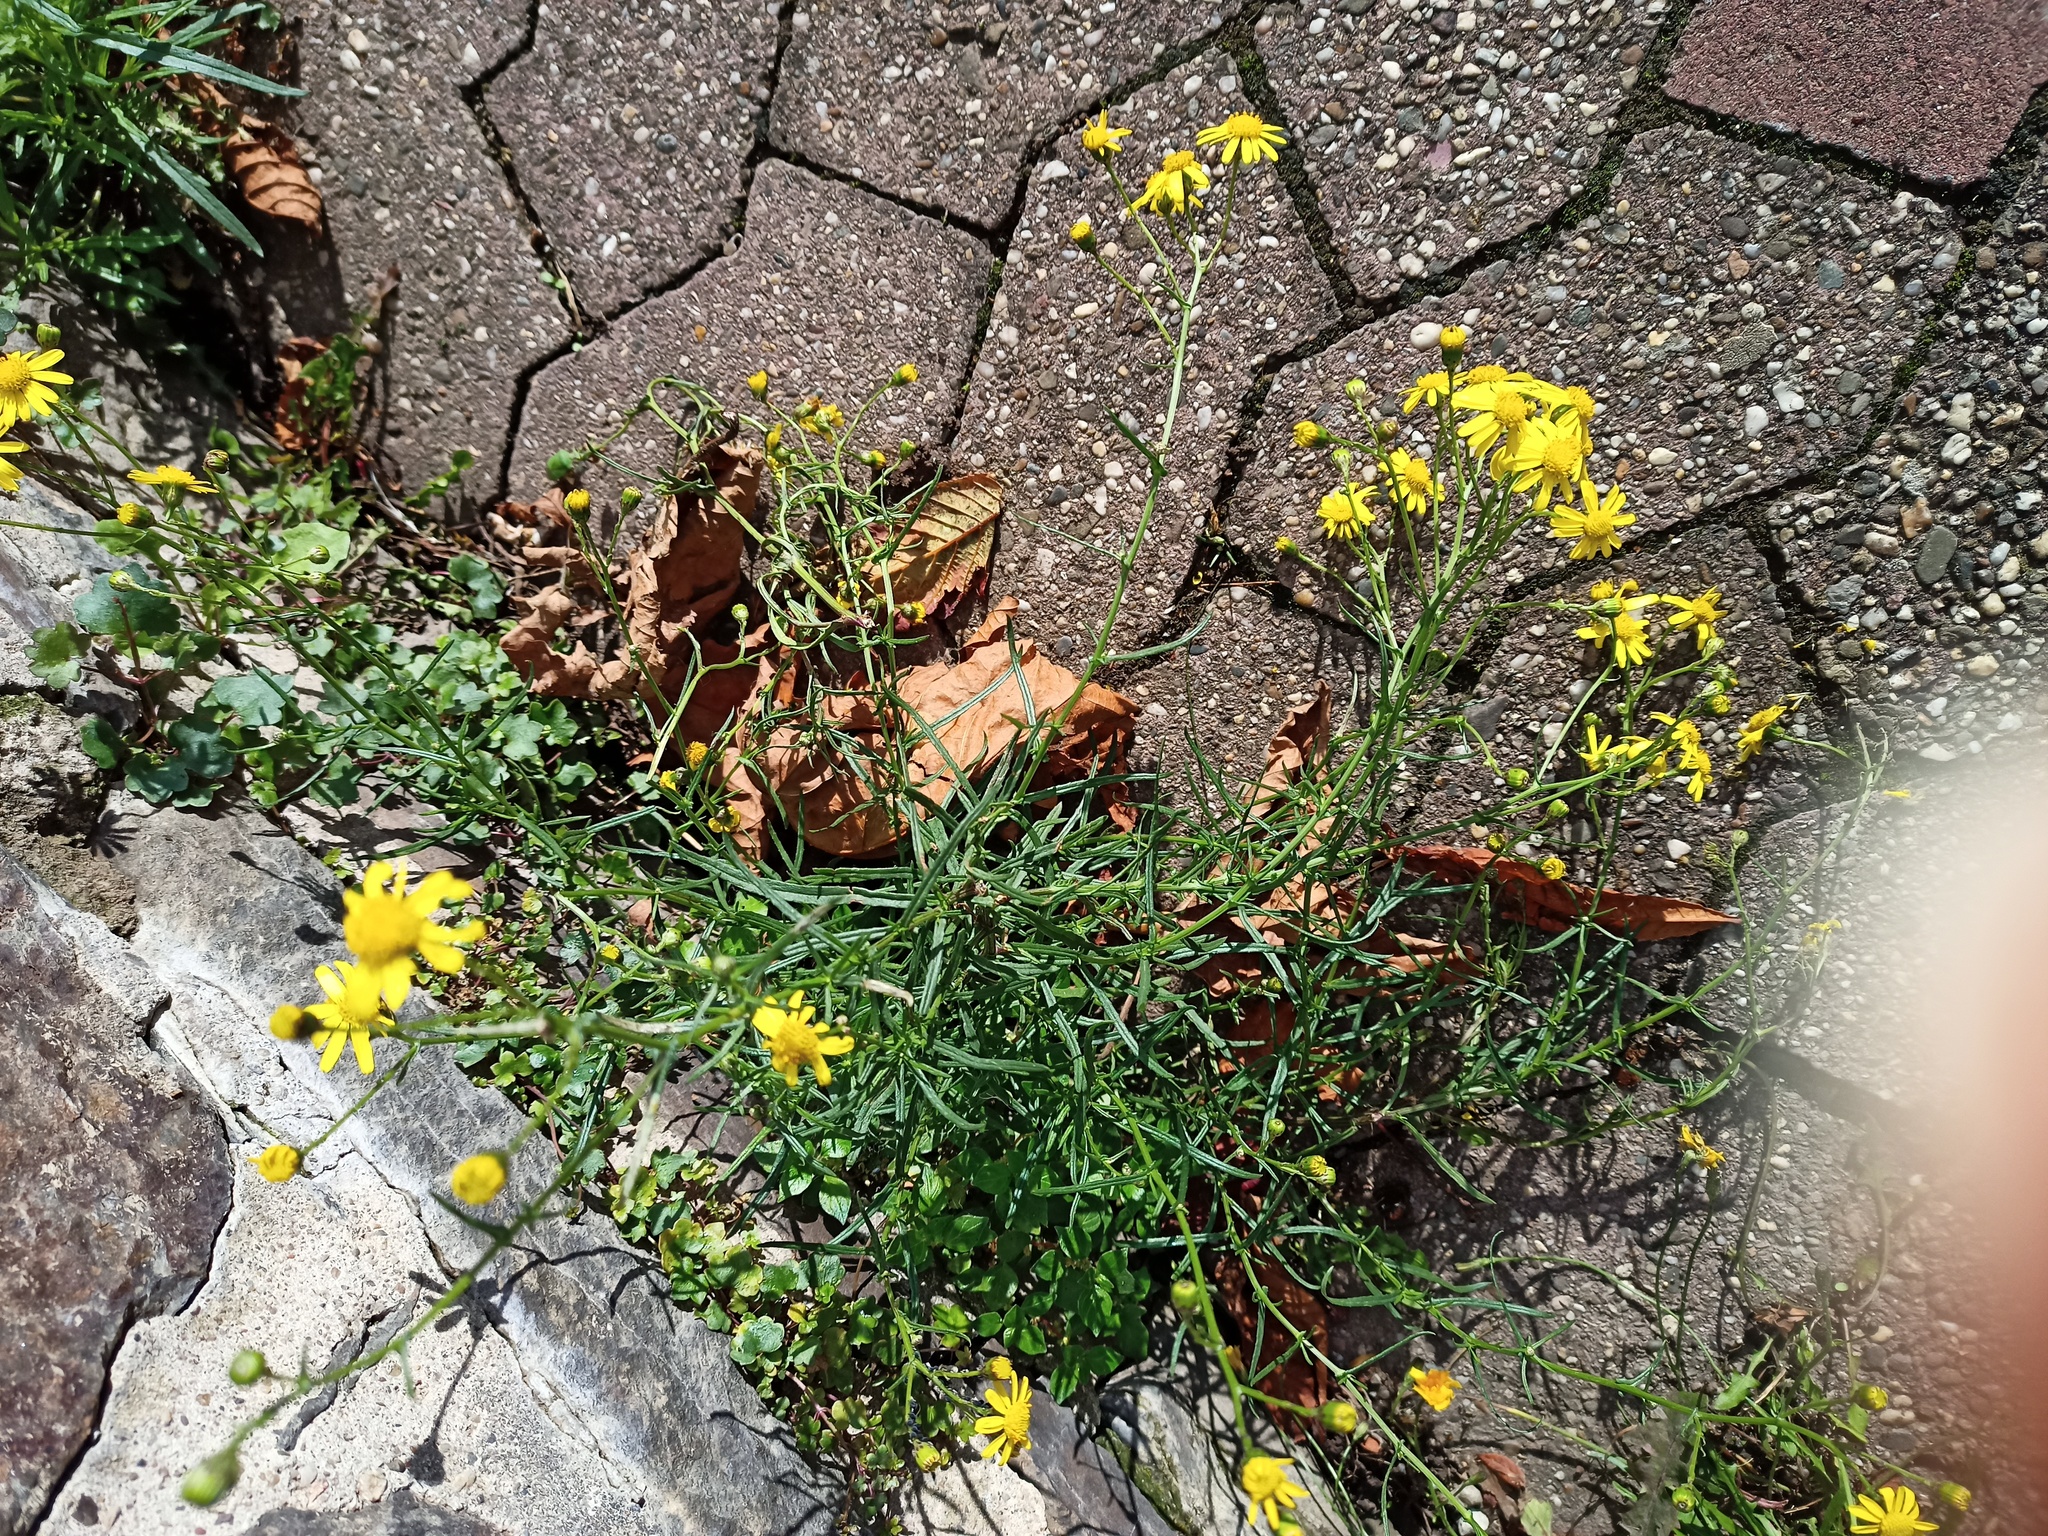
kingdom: Plantae
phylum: Tracheophyta
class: Magnoliopsida
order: Asterales
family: Asteraceae
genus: Senecio
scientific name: Senecio inaequidens
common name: Narrow-leaved ragwort
